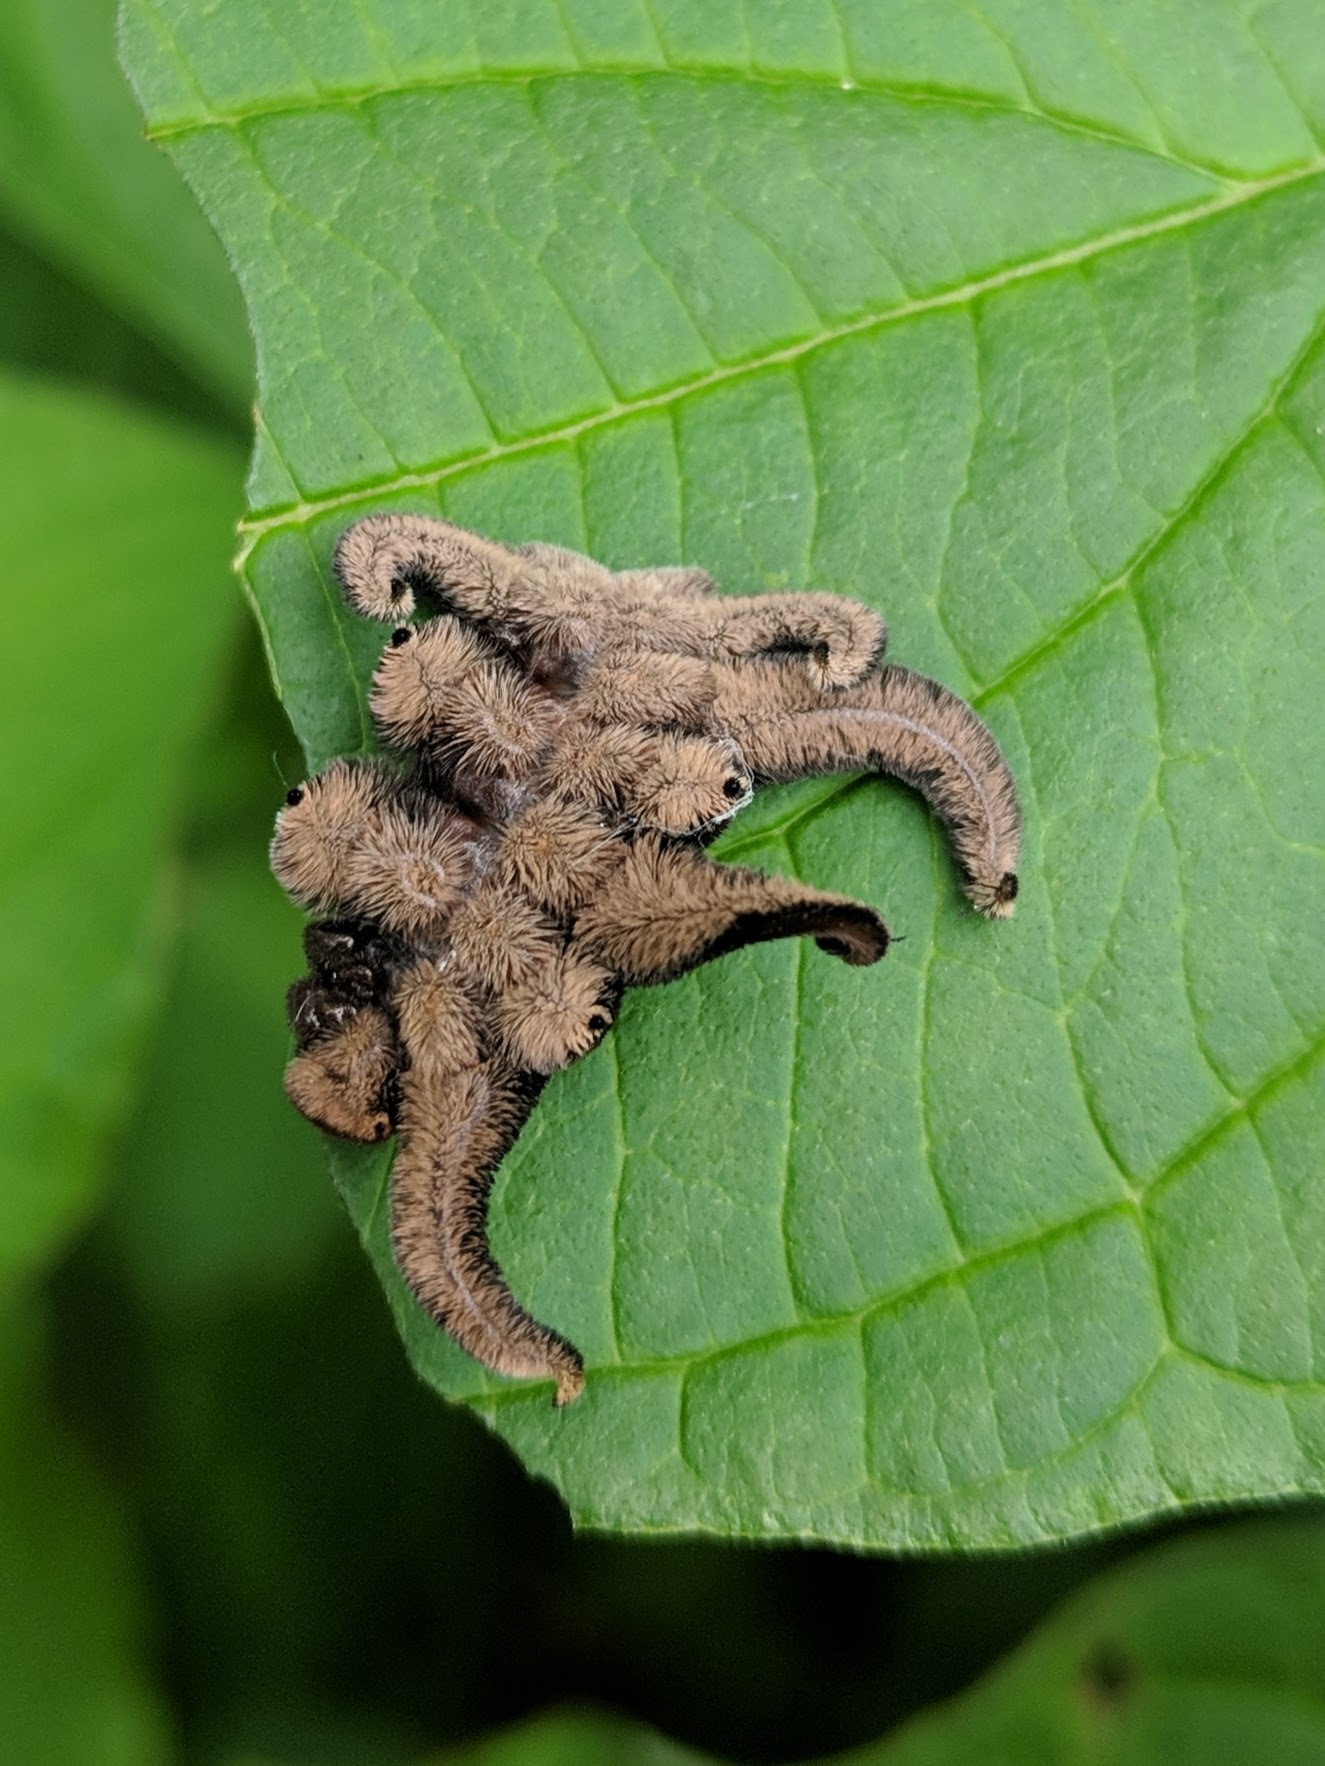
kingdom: Animalia
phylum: Arthropoda
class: Insecta
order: Lepidoptera
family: Limacodidae
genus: Phobetron
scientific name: Phobetron pithecium
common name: Hag moth
